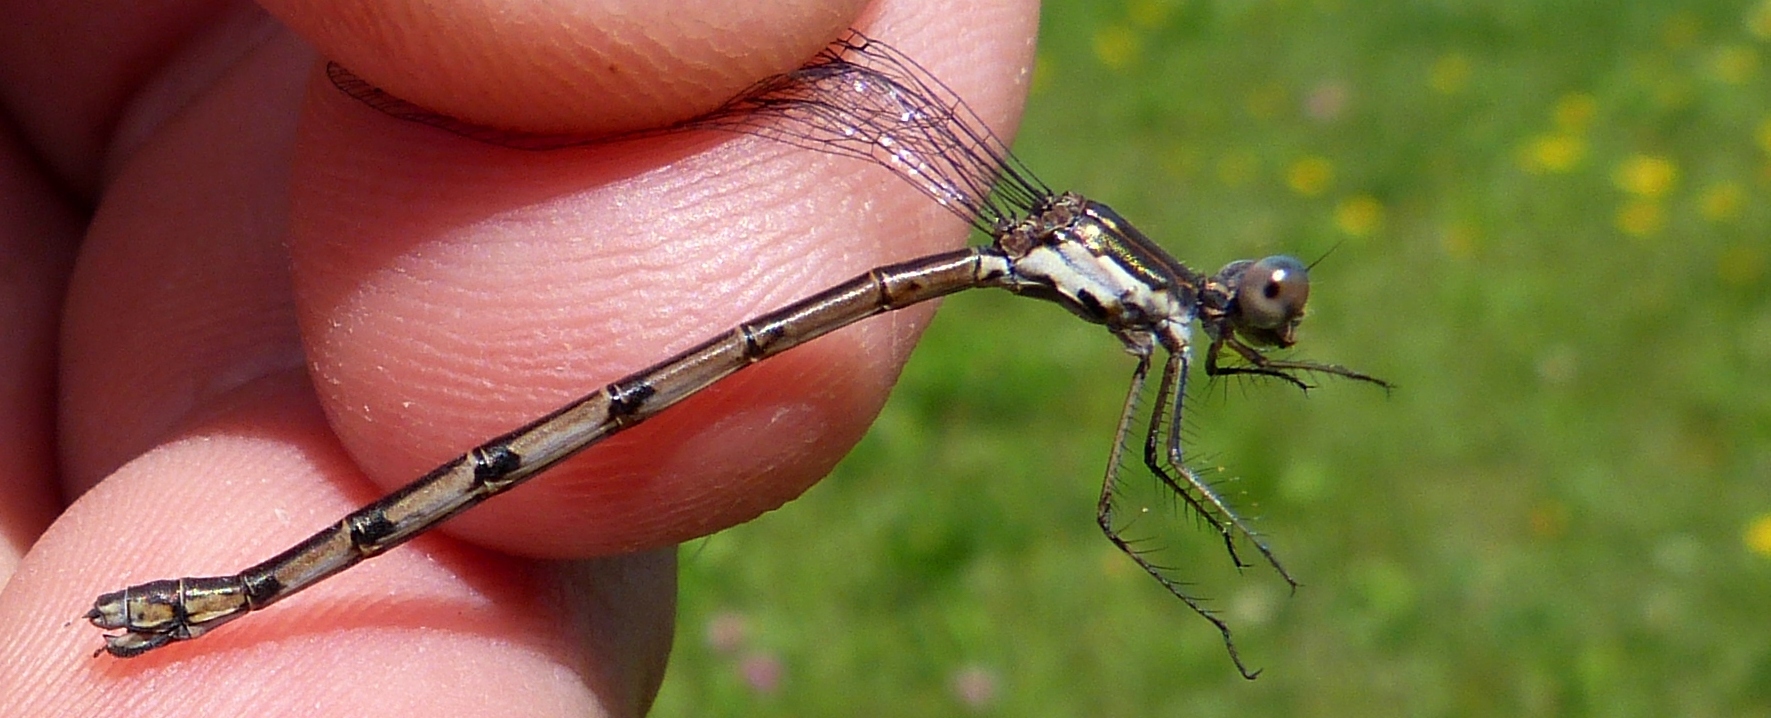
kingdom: Animalia
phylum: Arthropoda
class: Insecta
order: Odonata
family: Lestidae
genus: Lestes
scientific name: Lestes congener
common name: Spotted spreadwing
